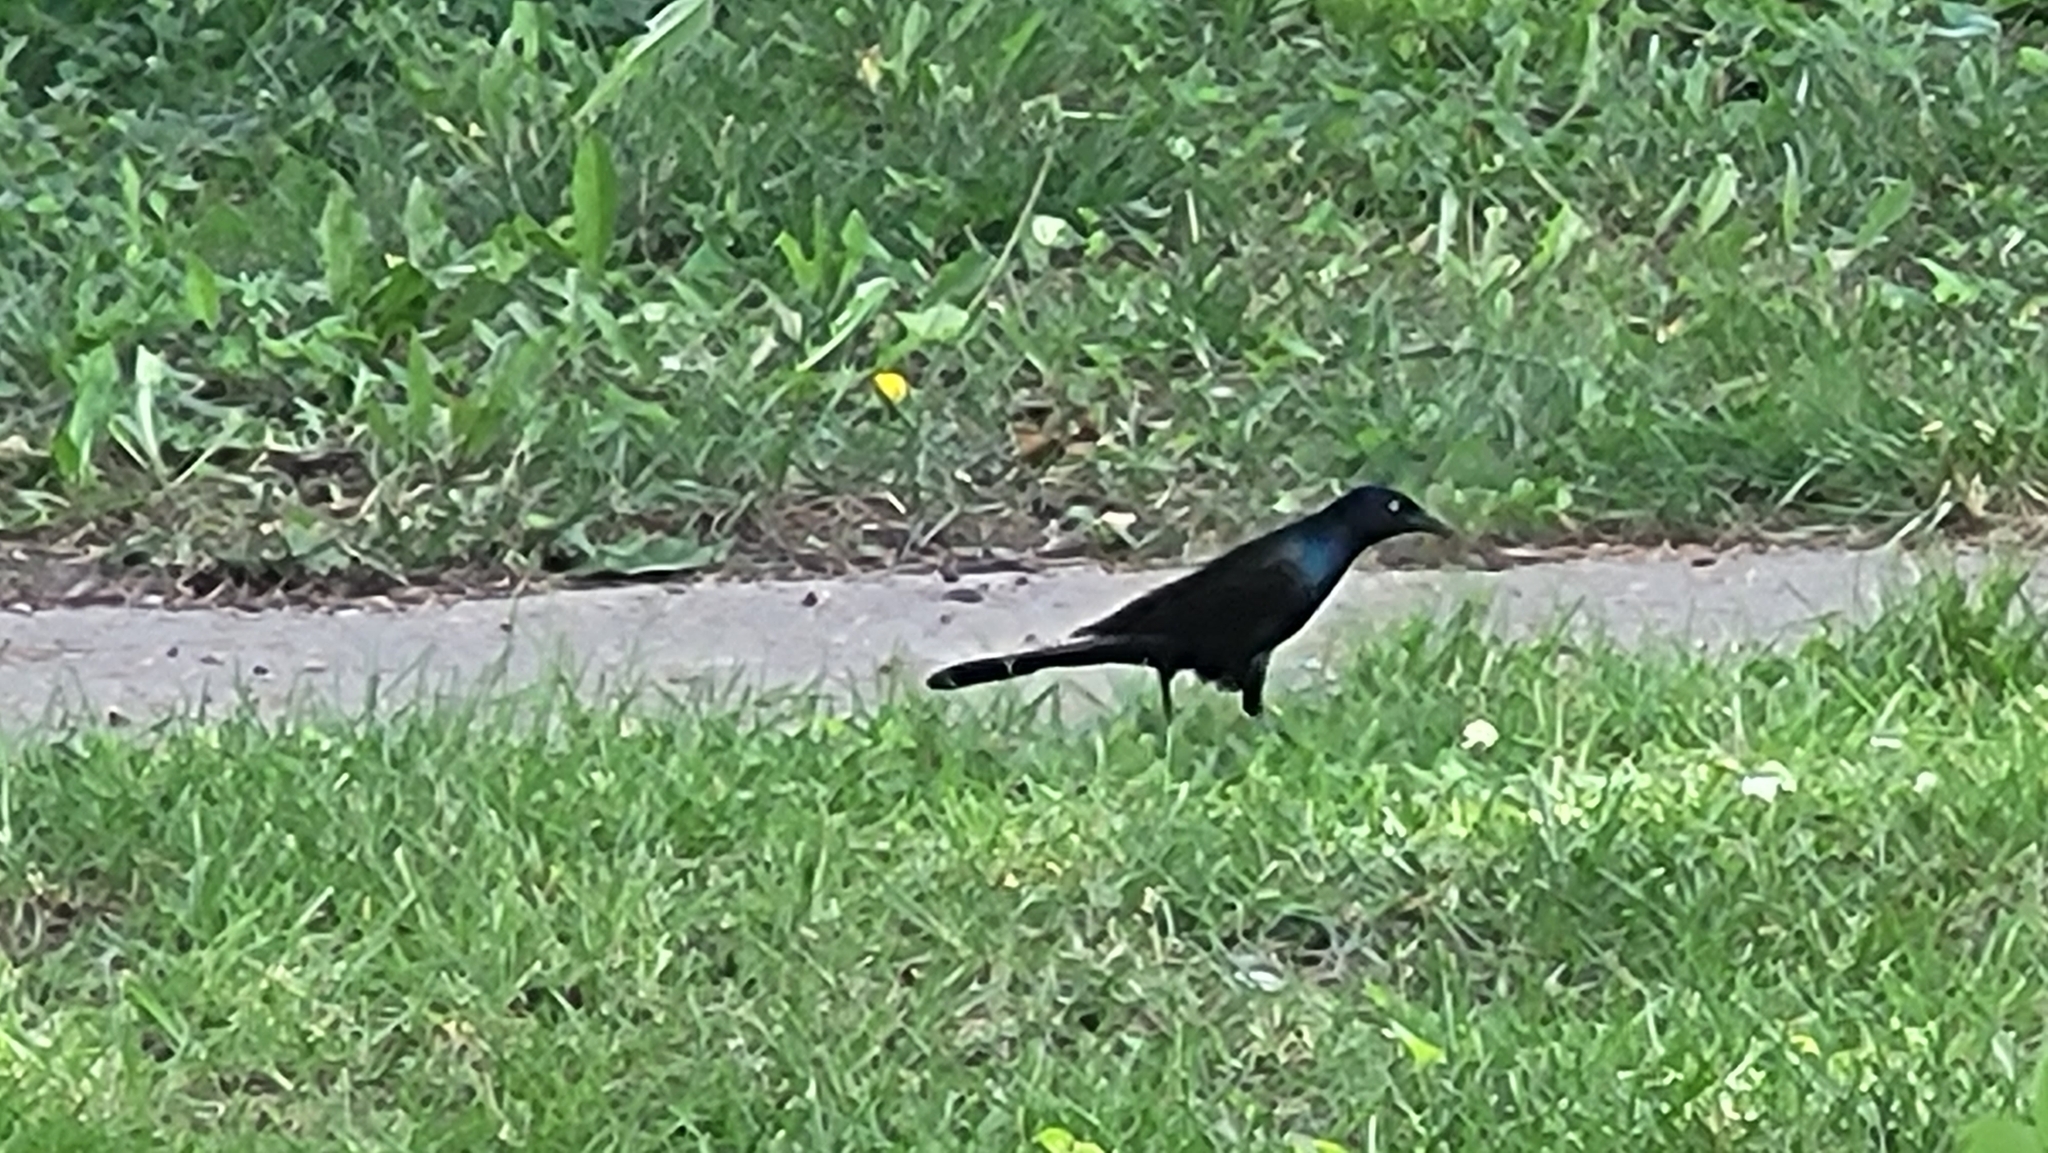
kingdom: Animalia
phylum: Chordata
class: Aves
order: Passeriformes
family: Icteridae
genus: Quiscalus
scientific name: Quiscalus quiscula
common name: Common grackle
